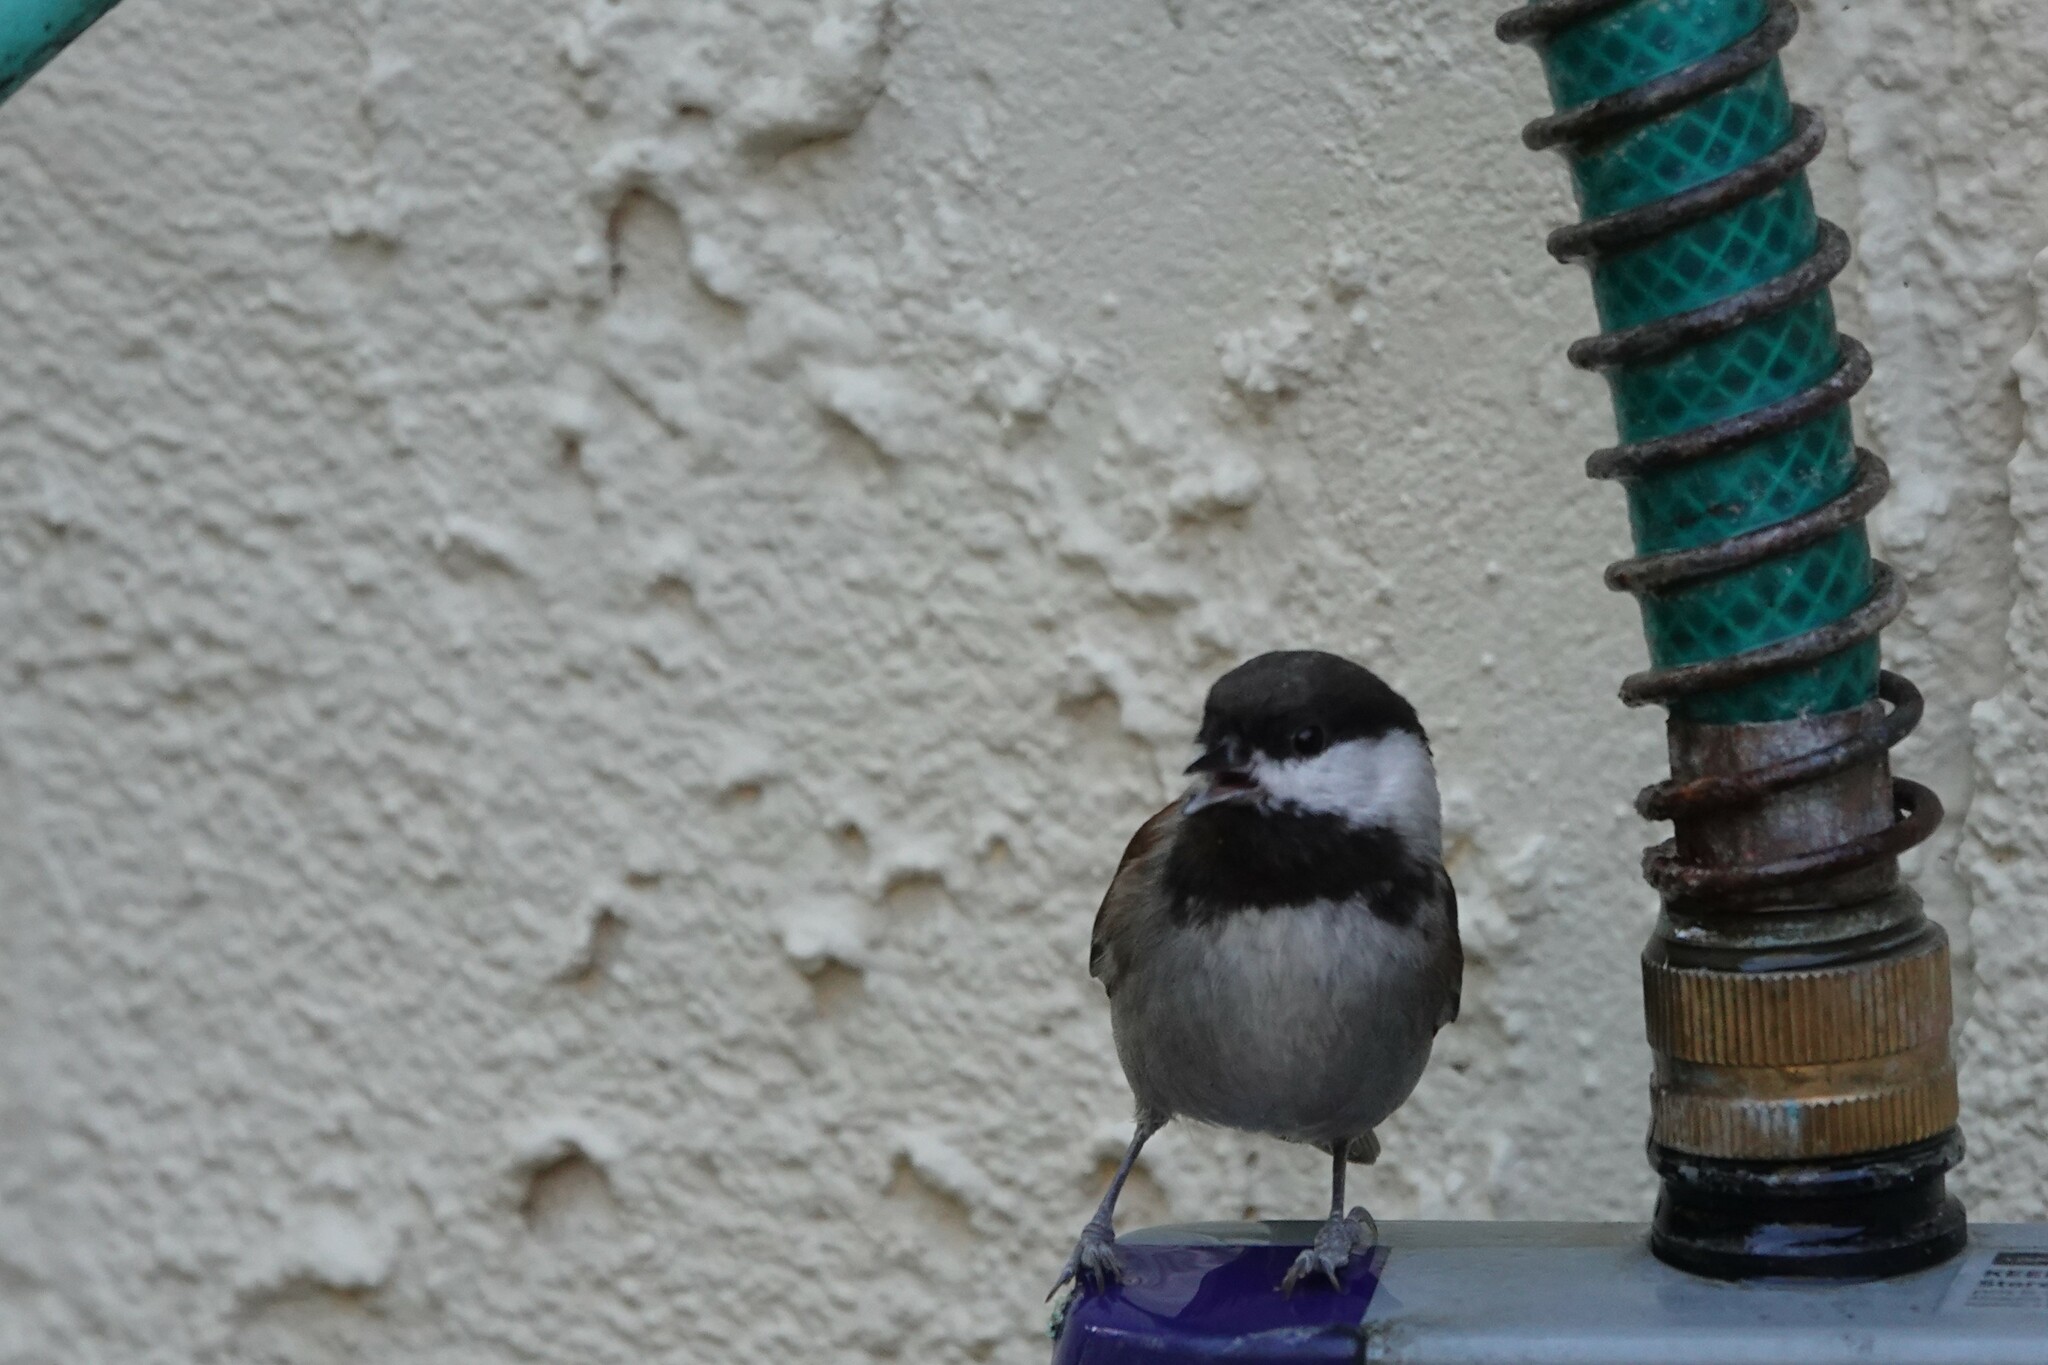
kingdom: Animalia
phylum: Chordata
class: Aves
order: Passeriformes
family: Paridae
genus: Poecile
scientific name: Poecile rufescens
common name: Chestnut-backed chickadee
